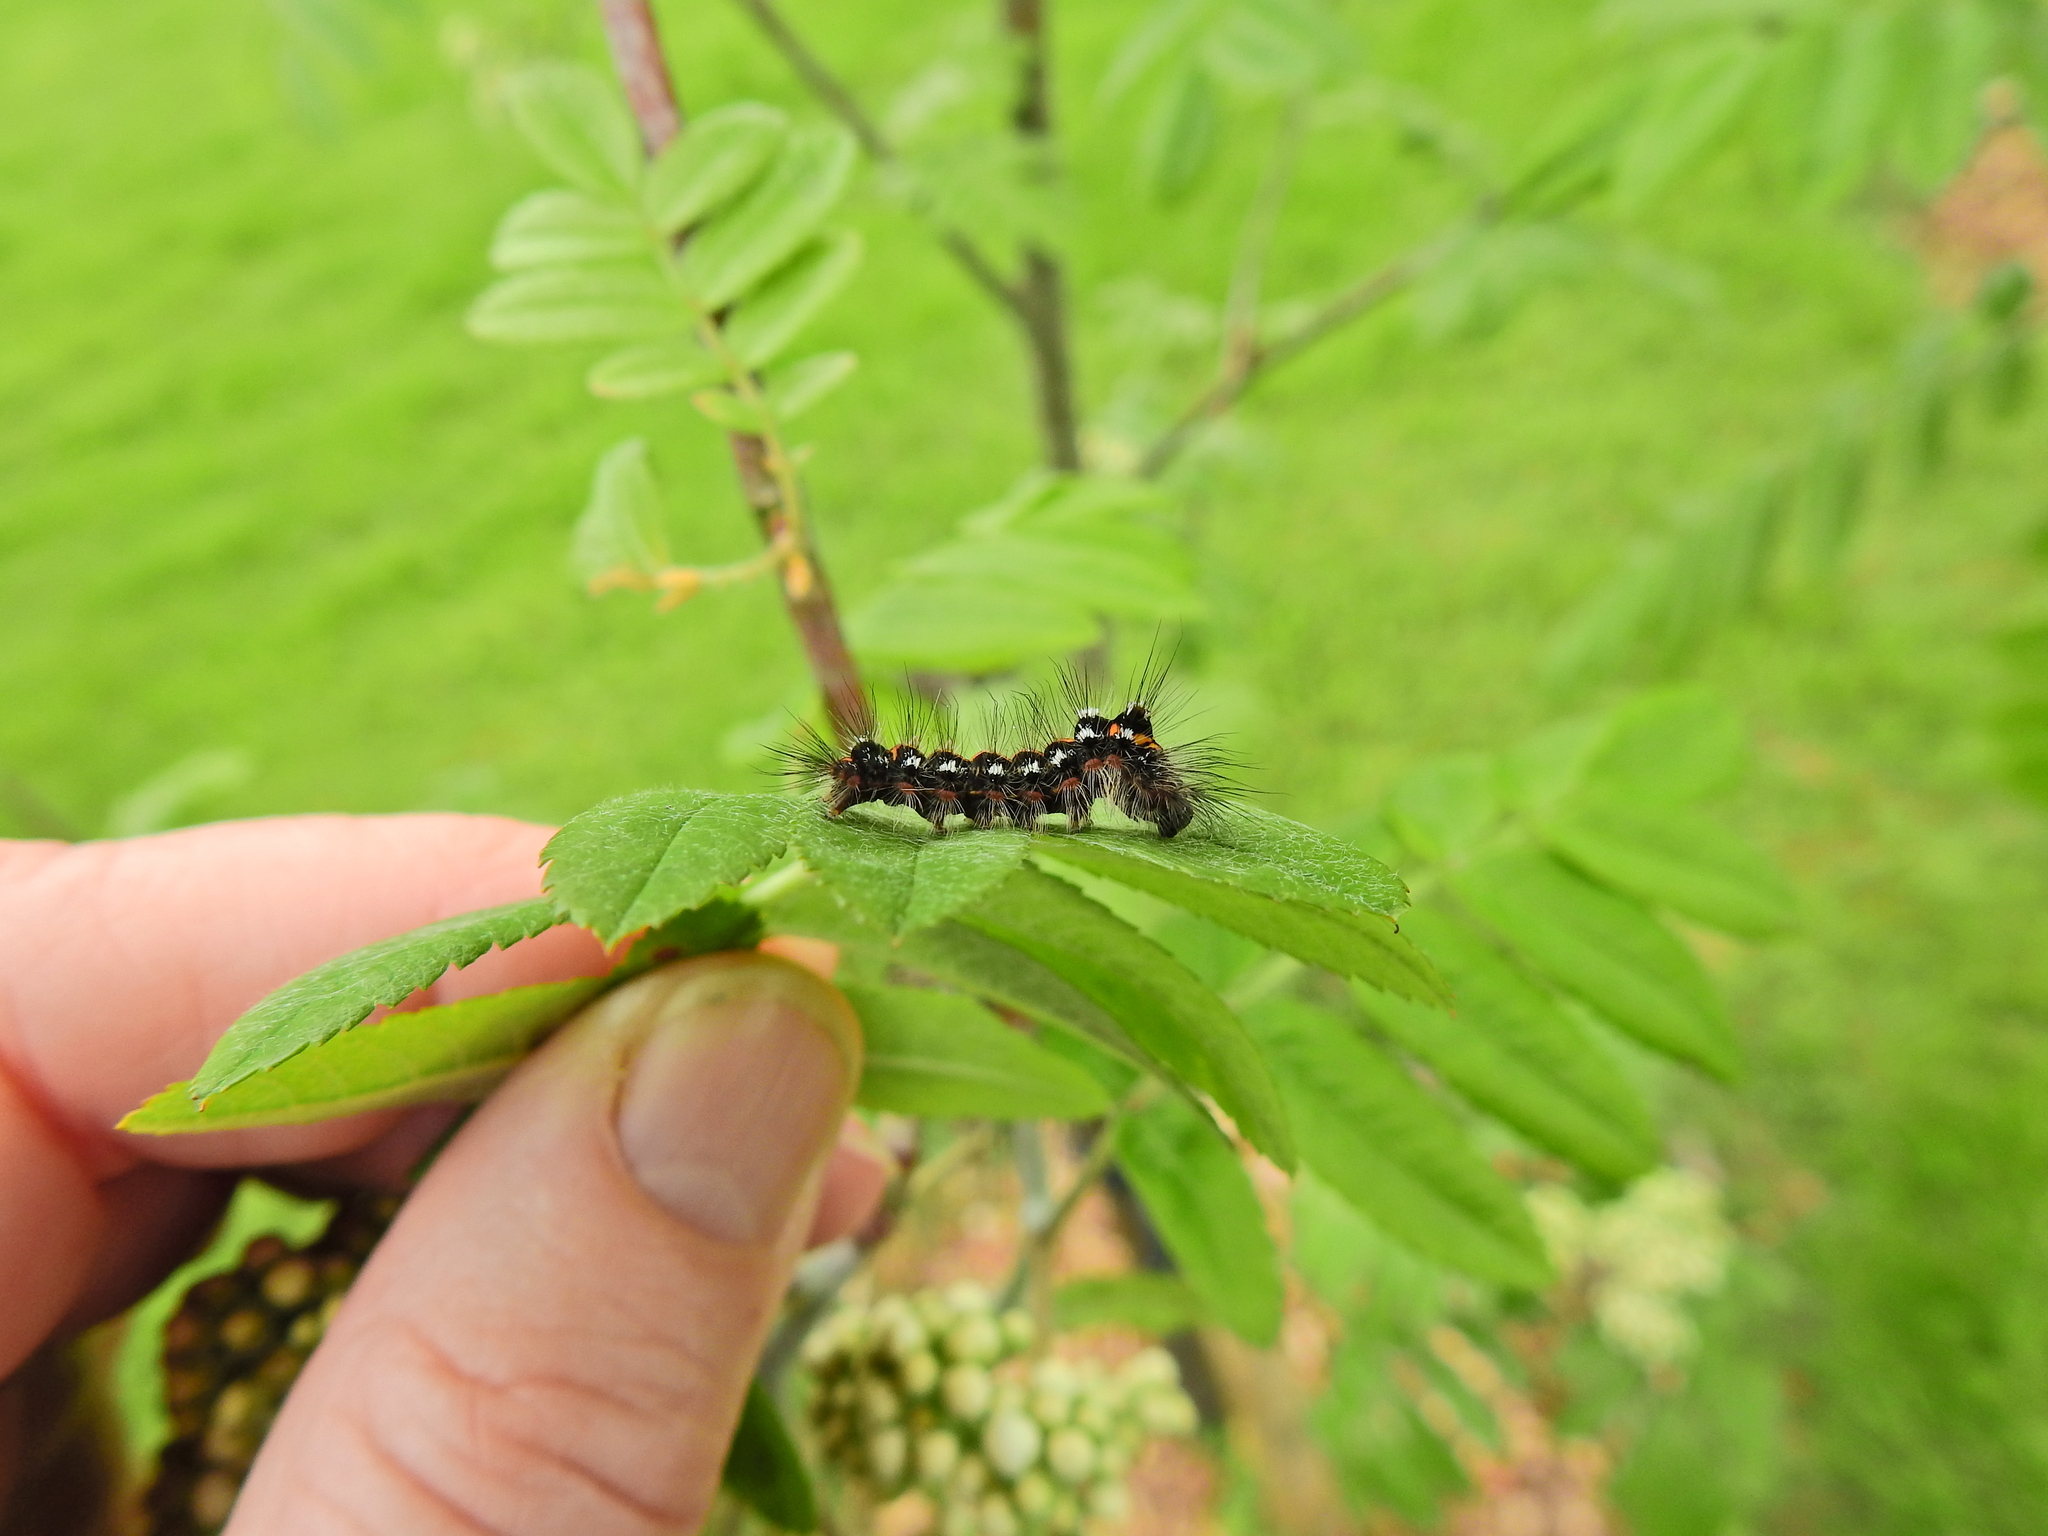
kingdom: Animalia
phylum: Arthropoda
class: Insecta
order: Lepidoptera
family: Erebidae
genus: Sphrageidus
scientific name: Sphrageidus similis
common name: Yellow-tail
